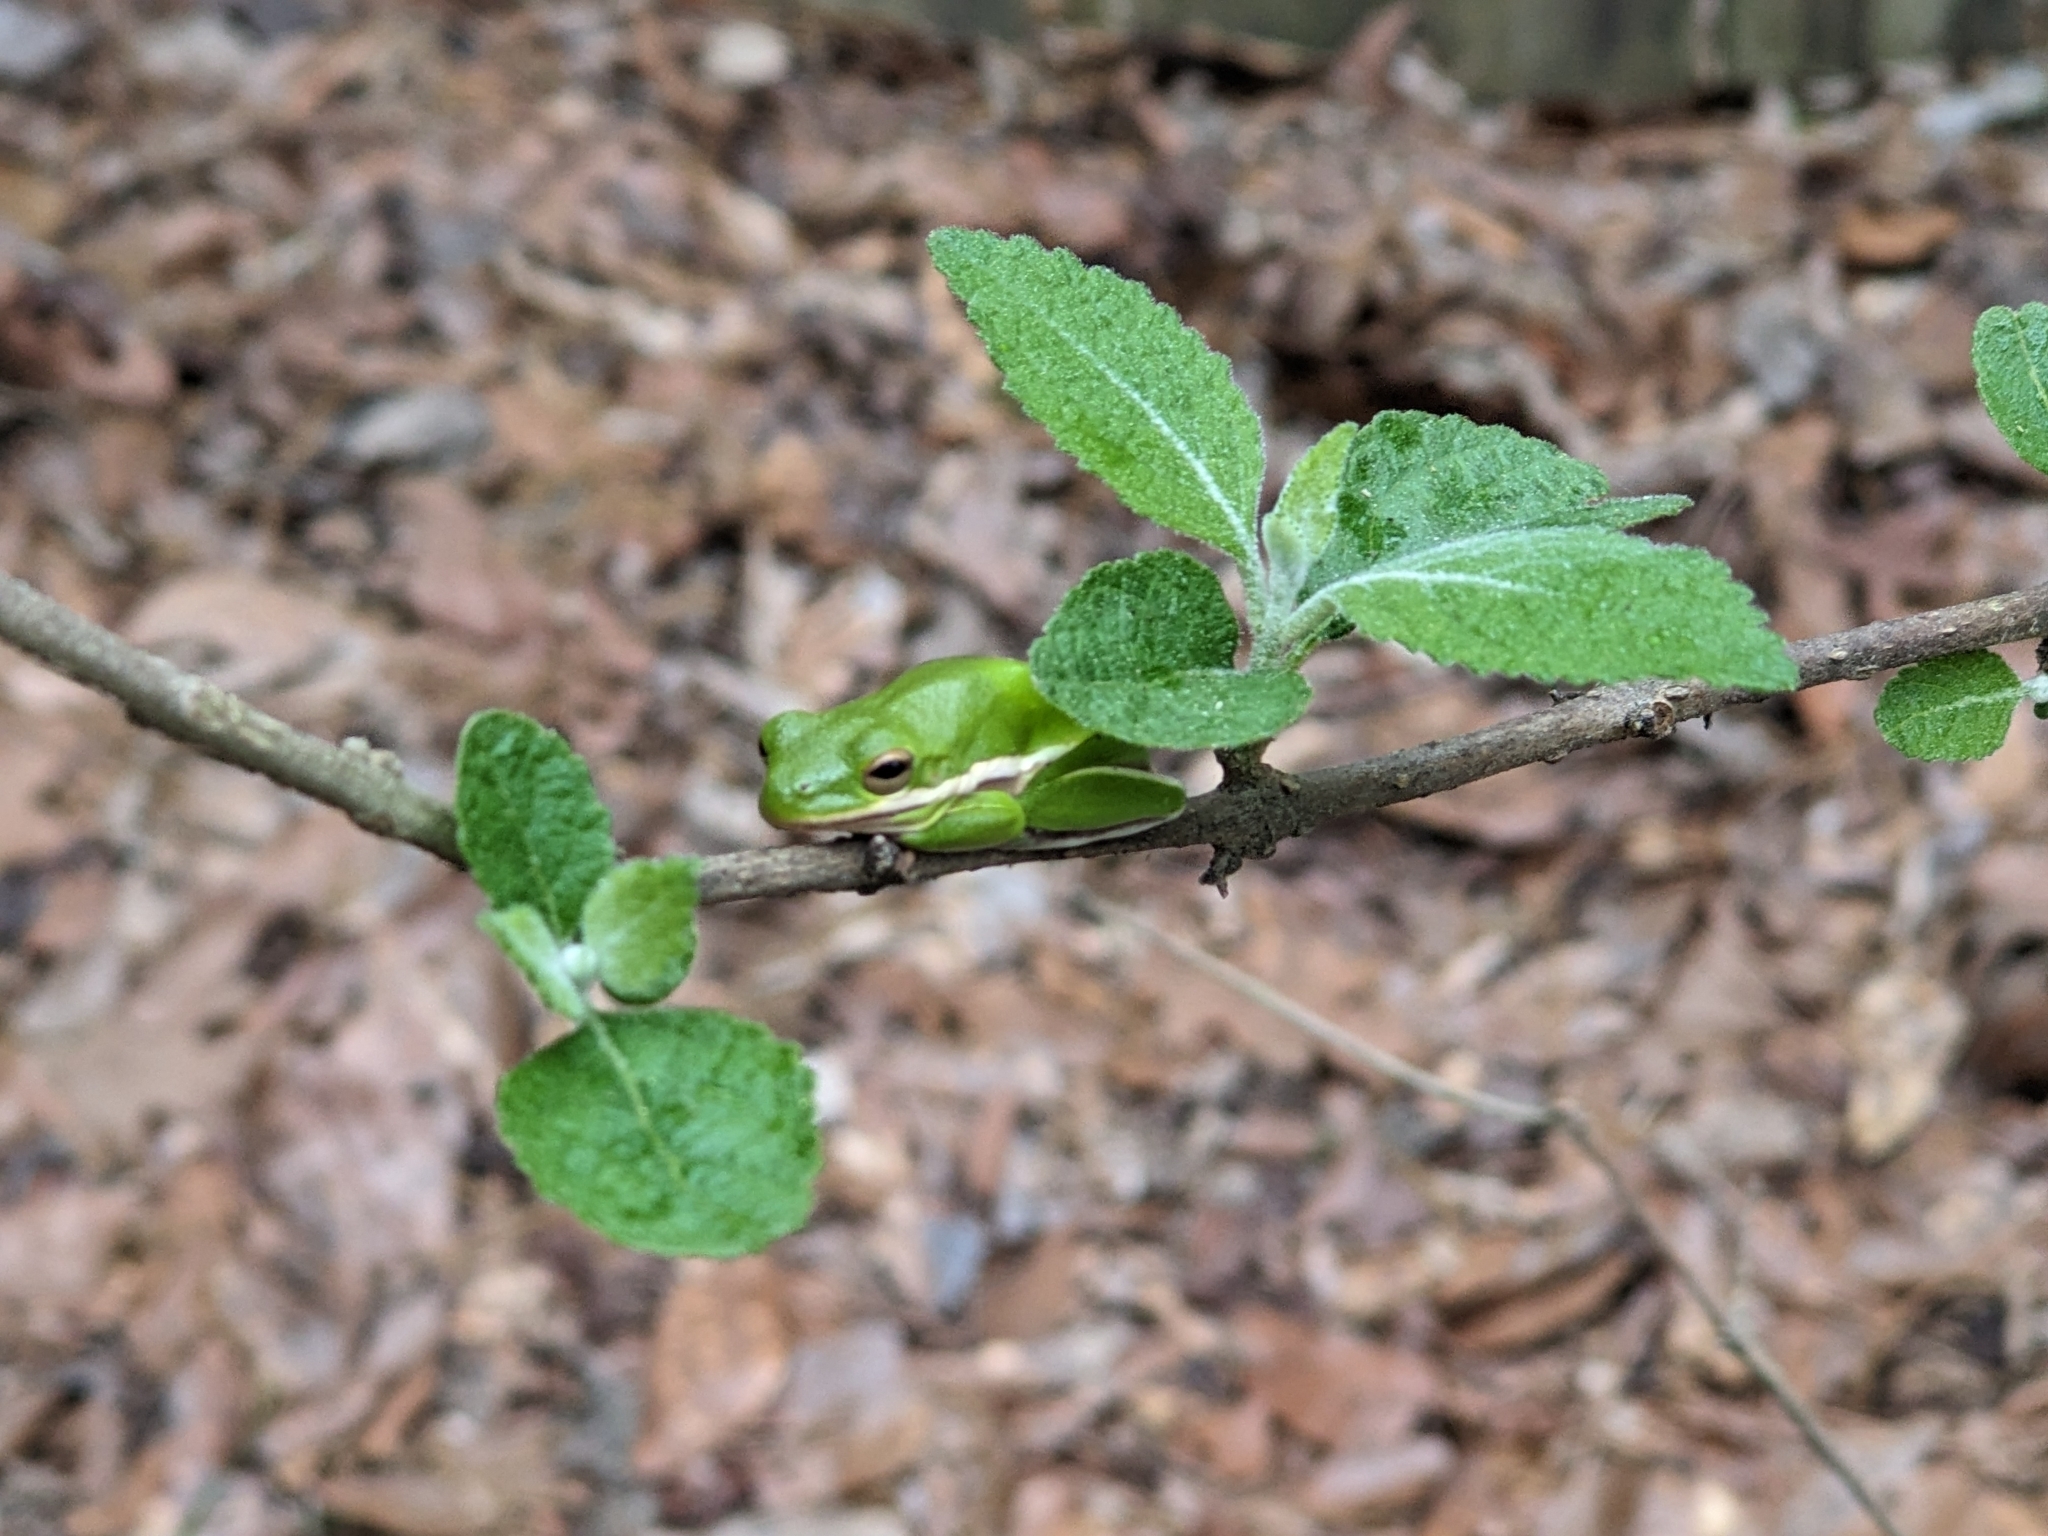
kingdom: Animalia
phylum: Chordata
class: Amphibia
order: Anura
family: Hylidae
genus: Dryophytes
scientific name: Dryophytes cinereus
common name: Green treefrog
